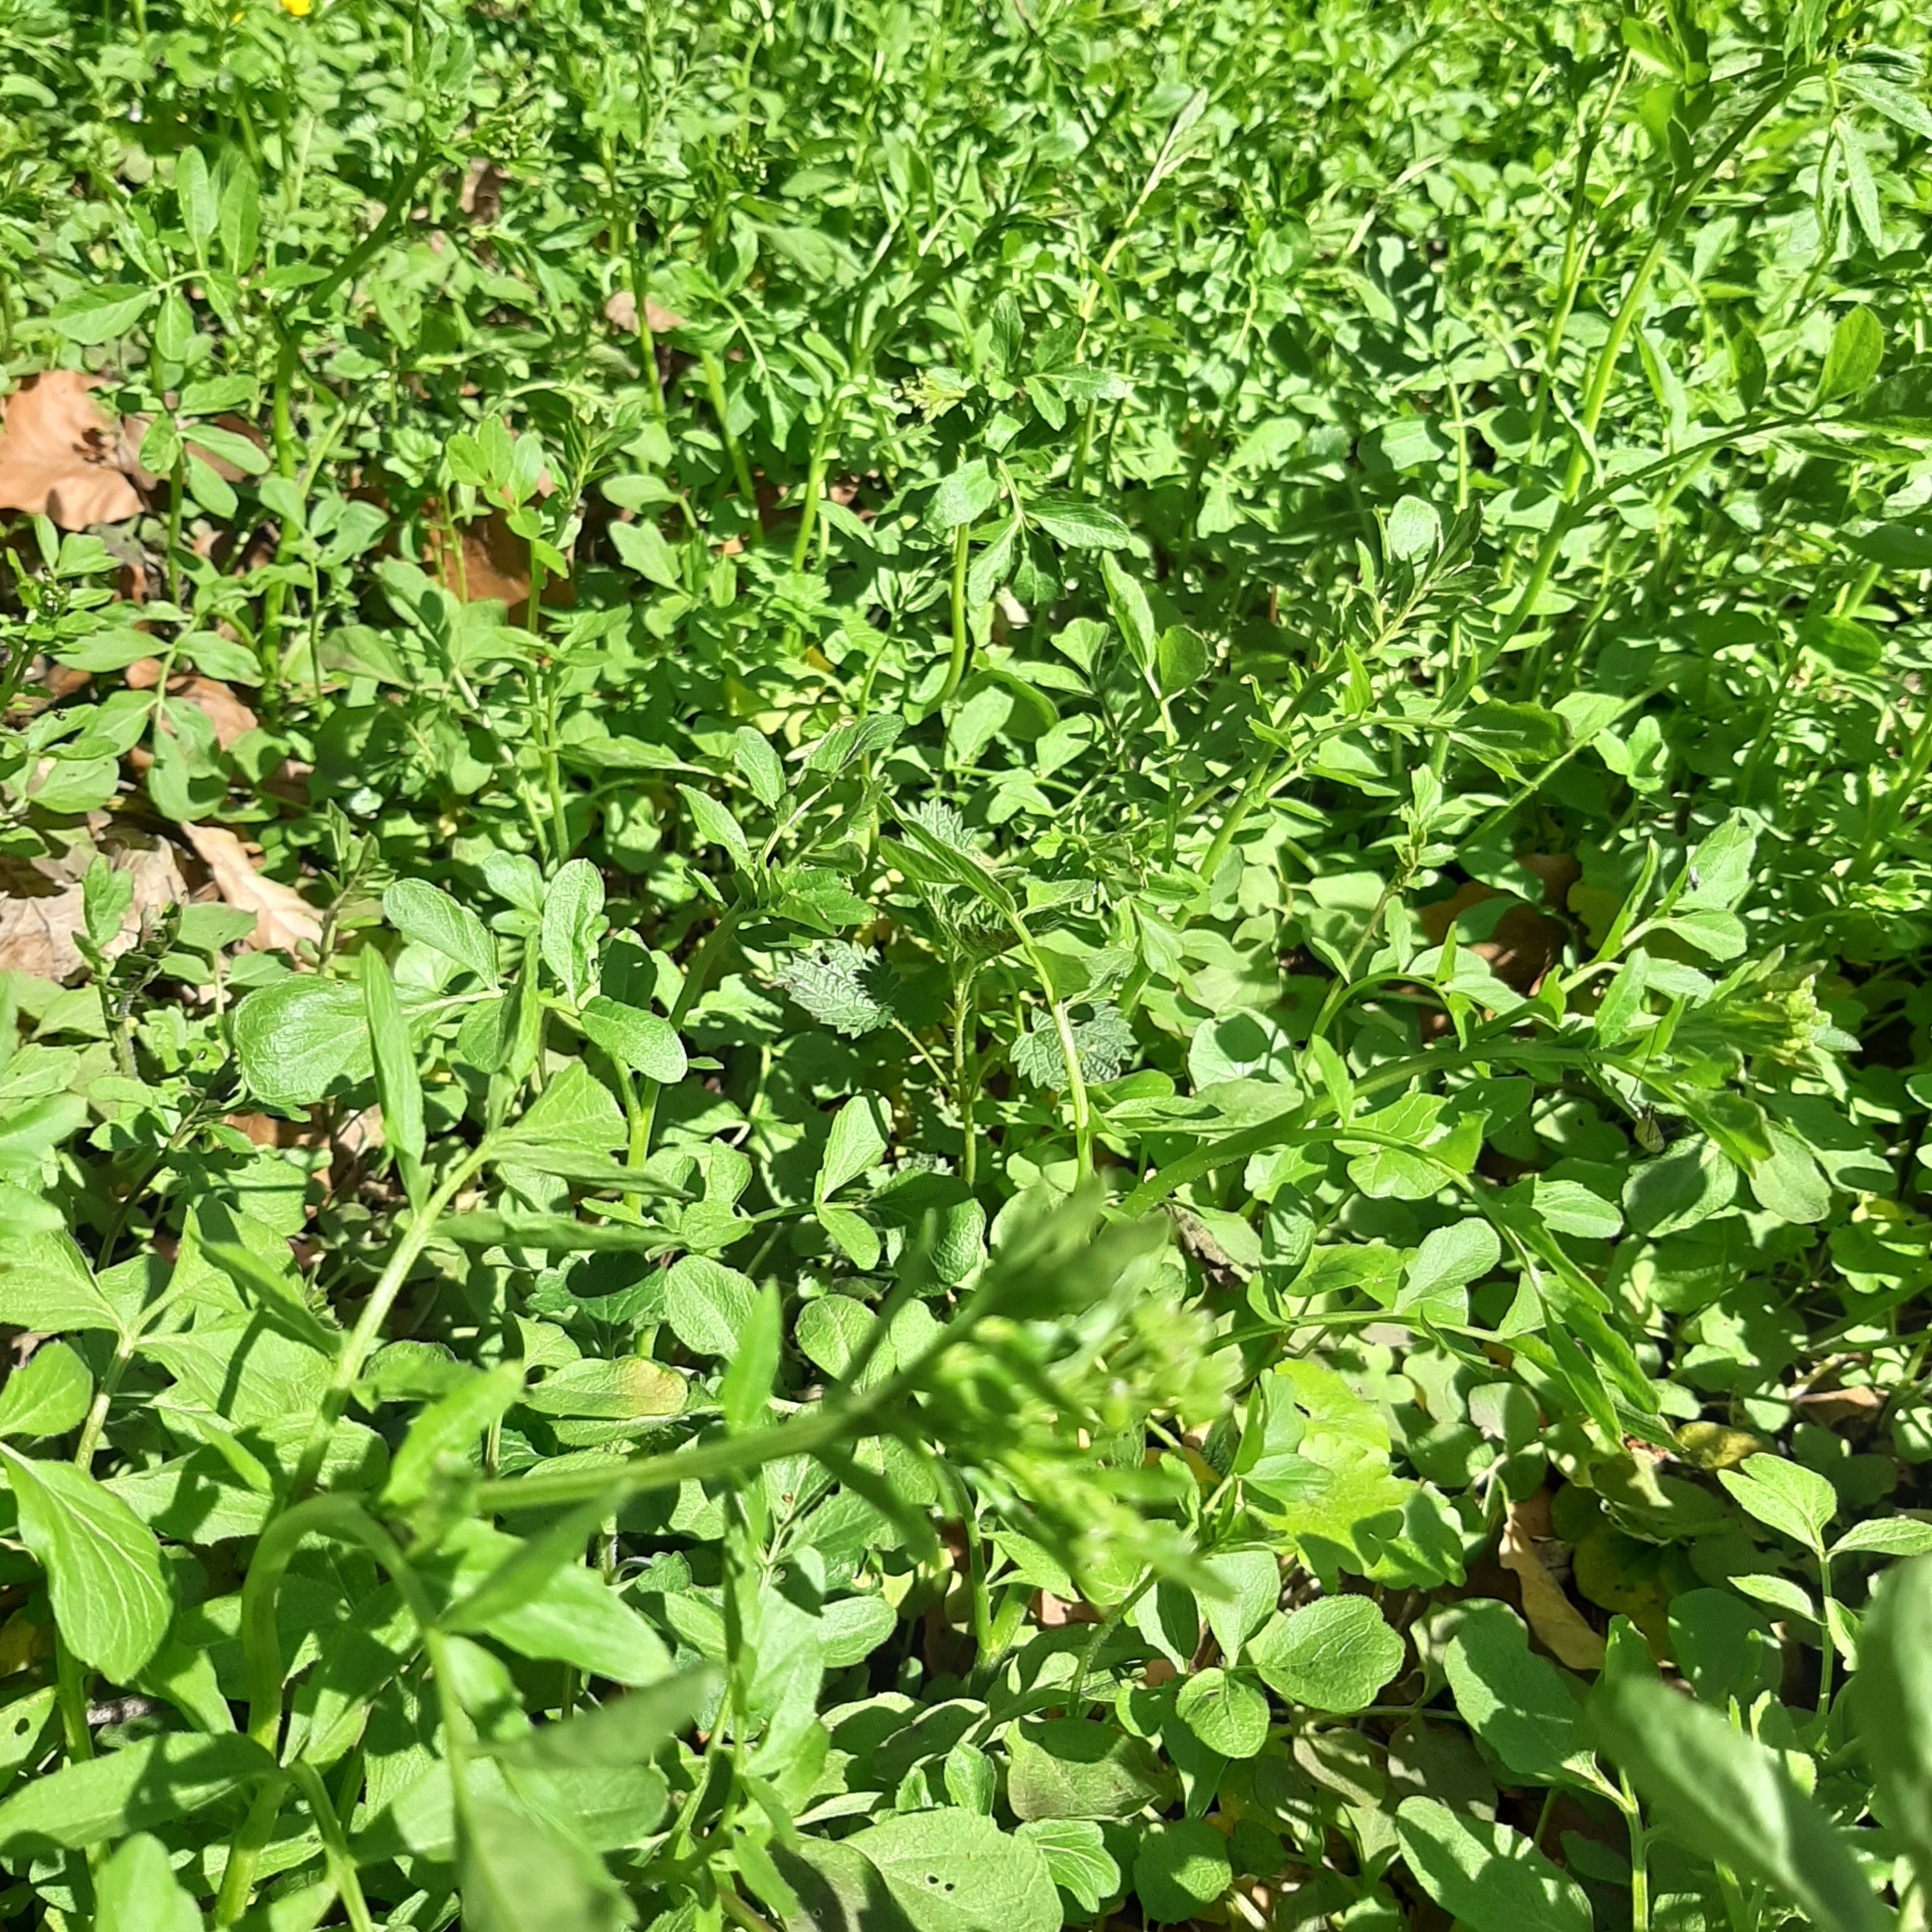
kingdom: Plantae
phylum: Tracheophyta
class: Magnoliopsida
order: Brassicales
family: Brassicaceae
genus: Cardamine
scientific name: Cardamine amara
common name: Large bitter-cress
